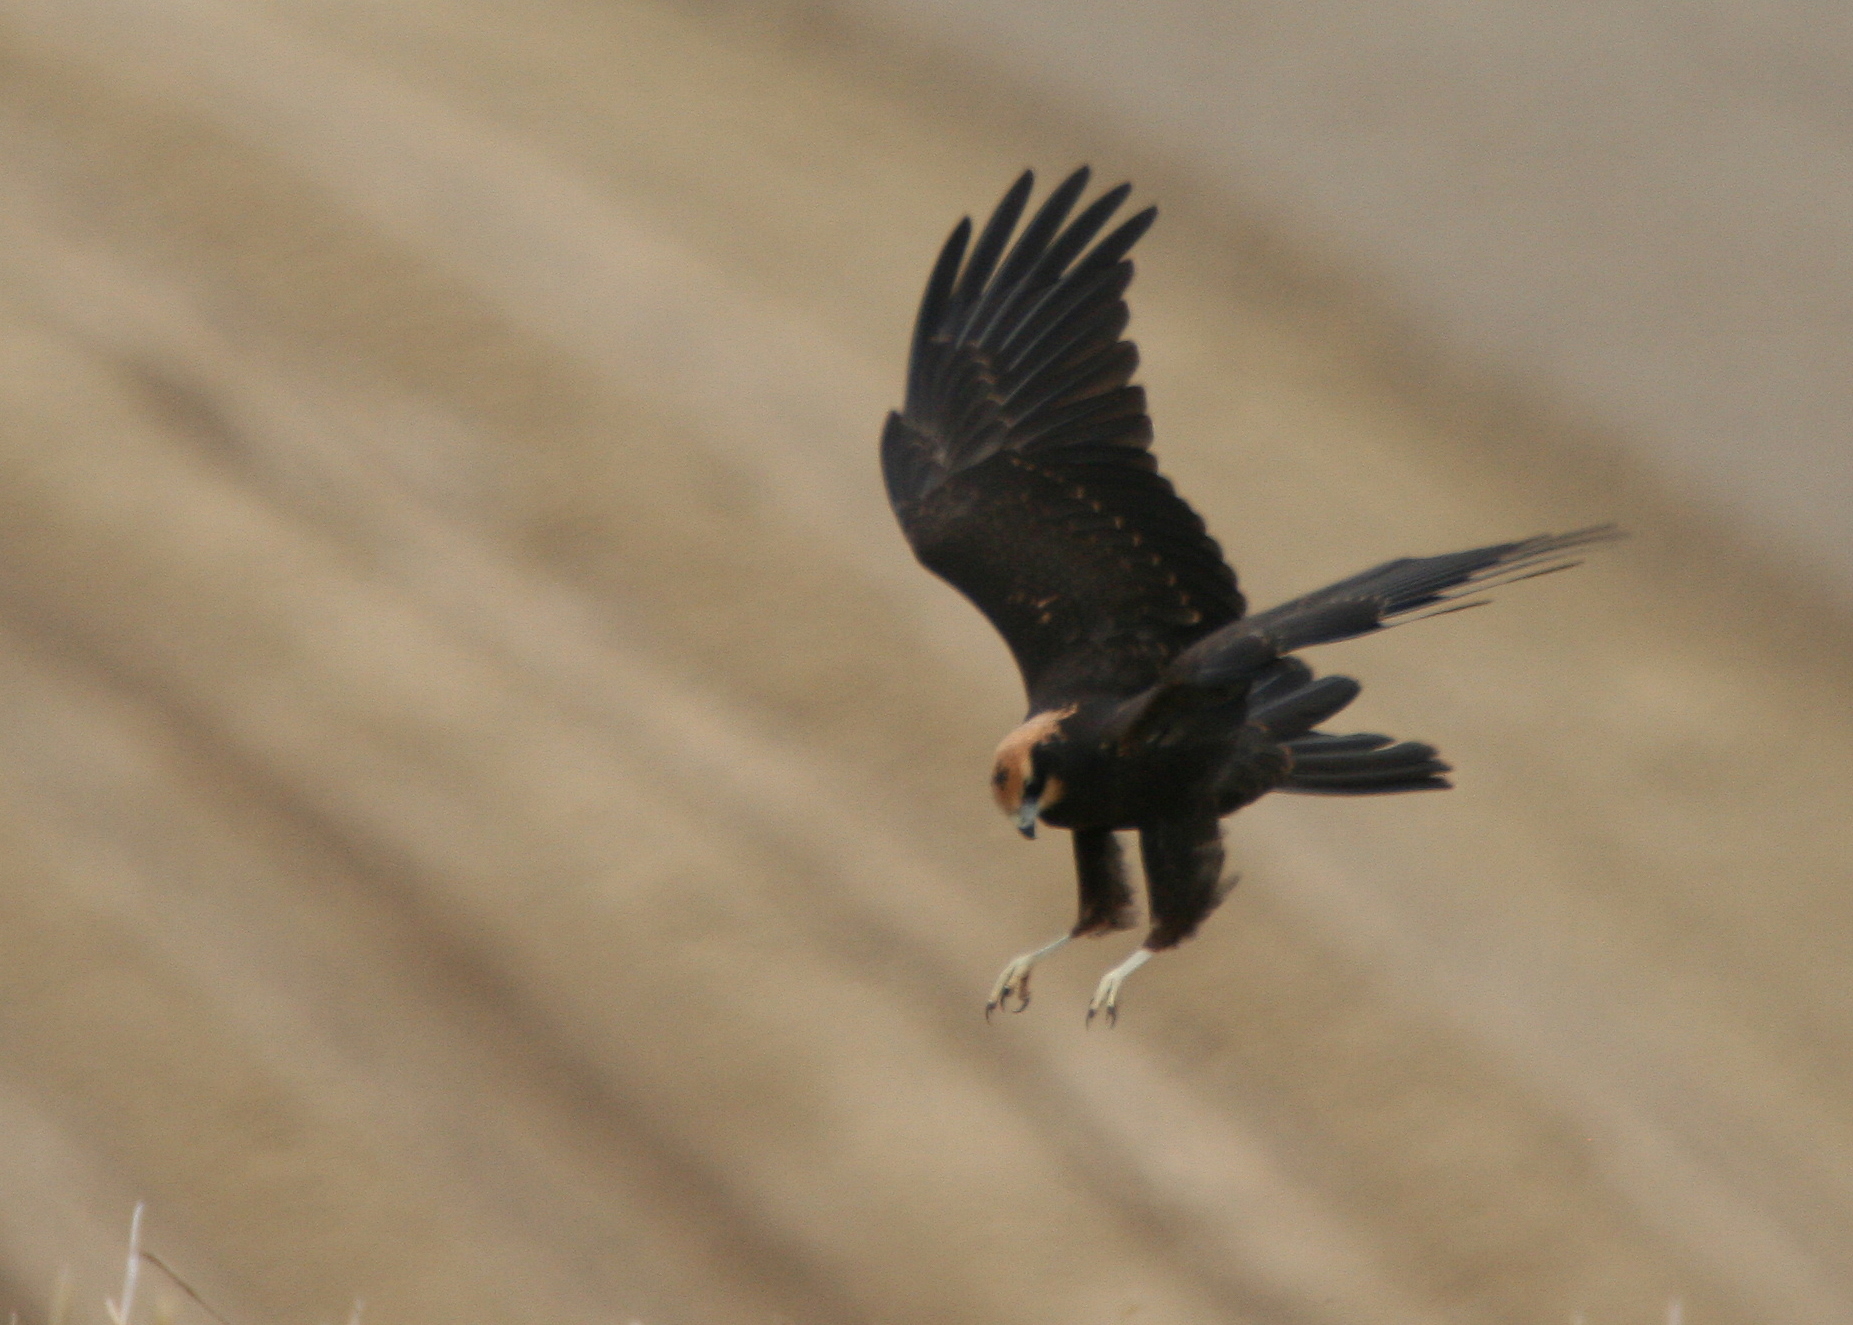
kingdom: Animalia
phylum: Chordata
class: Aves
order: Accipitriformes
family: Accipitridae
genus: Circus
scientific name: Circus aeruginosus
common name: Western marsh harrier
